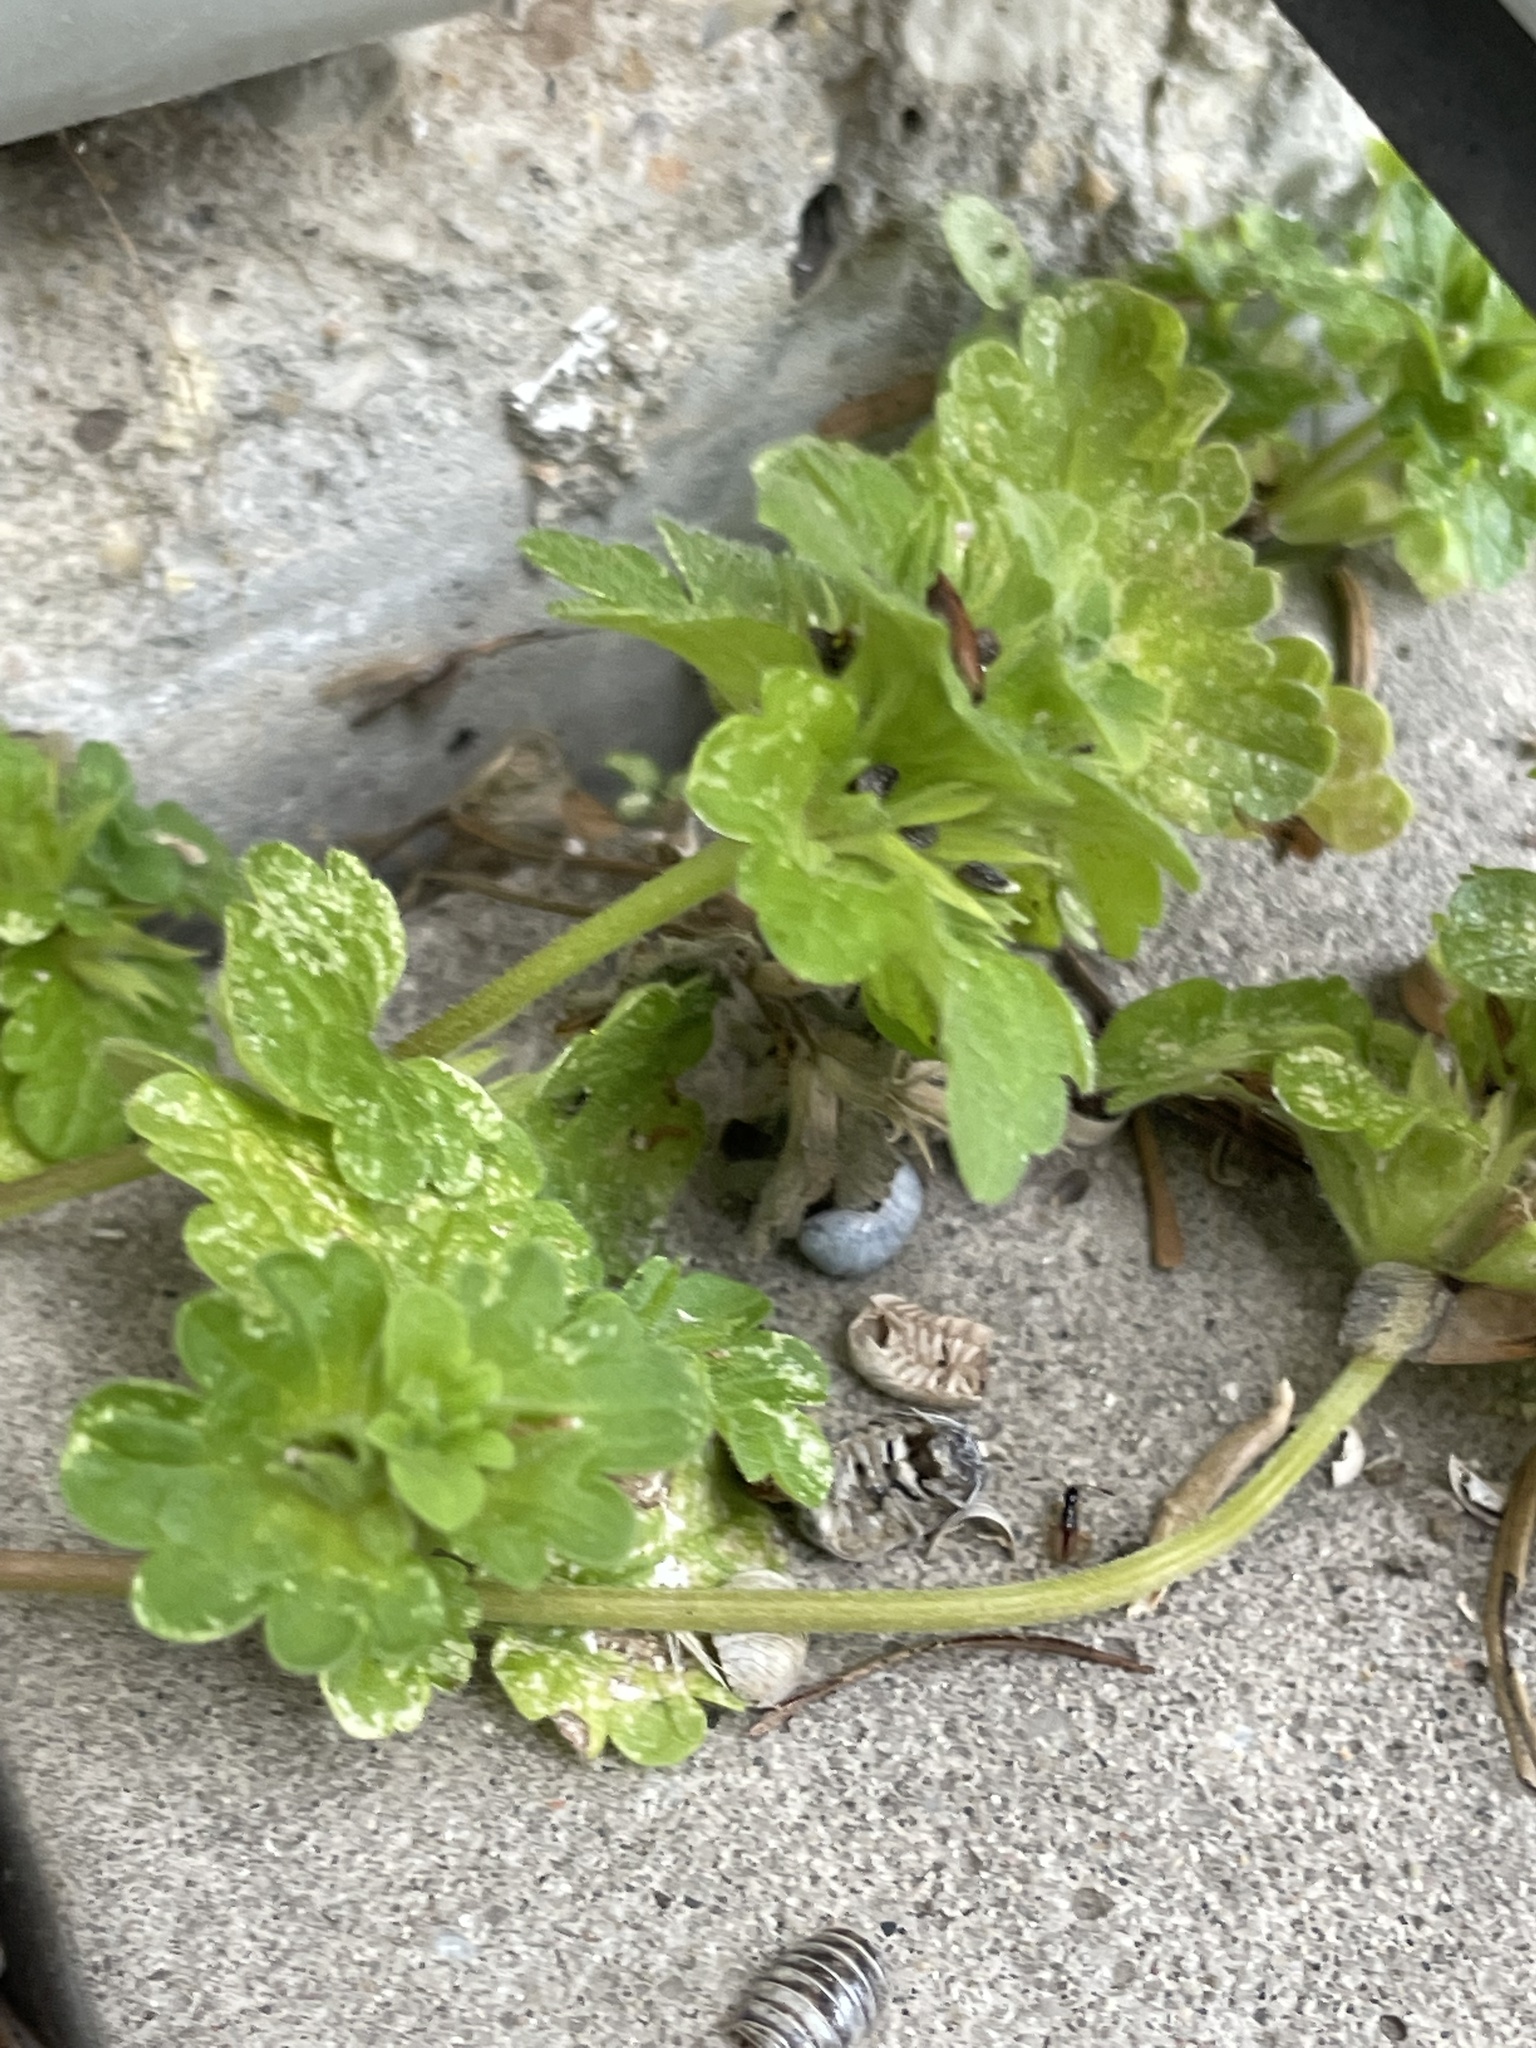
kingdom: Plantae
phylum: Tracheophyta
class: Magnoliopsida
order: Lamiales
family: Lamiaceae
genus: Lamium
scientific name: Lamium amplexicaule
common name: Henbit dead-nettle
